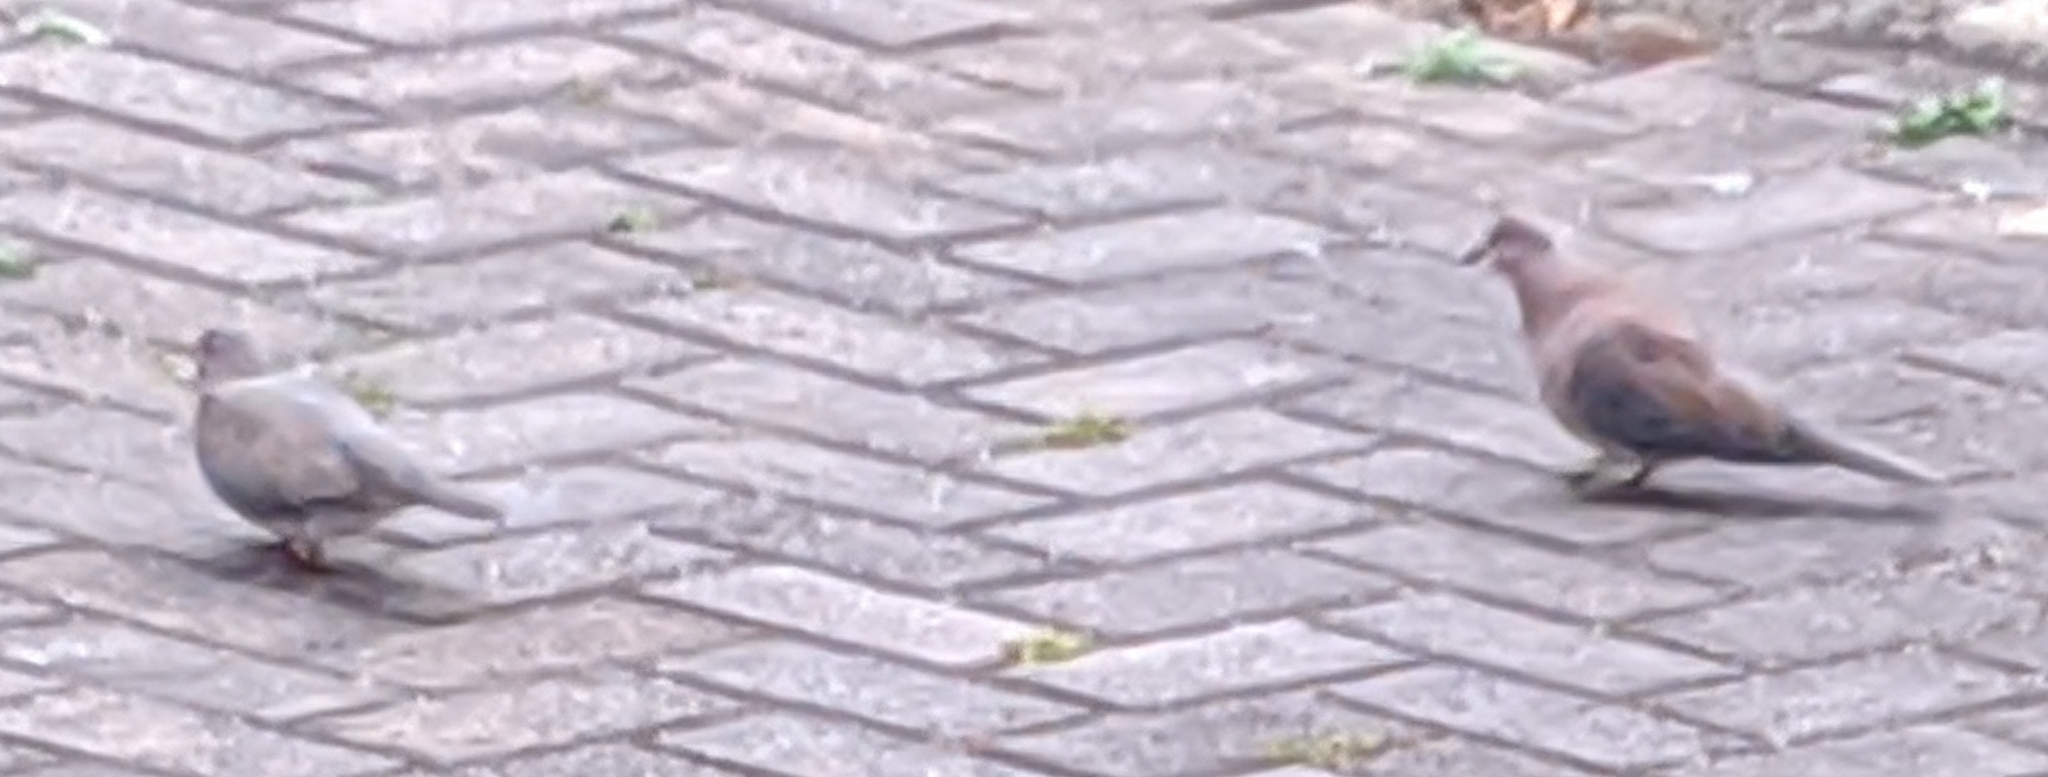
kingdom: Animalia
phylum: Chordata
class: Aves
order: Columbiformes
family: Columbidae
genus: Spilopelia
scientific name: Spilopelia senegalensis
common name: Laughing dove
